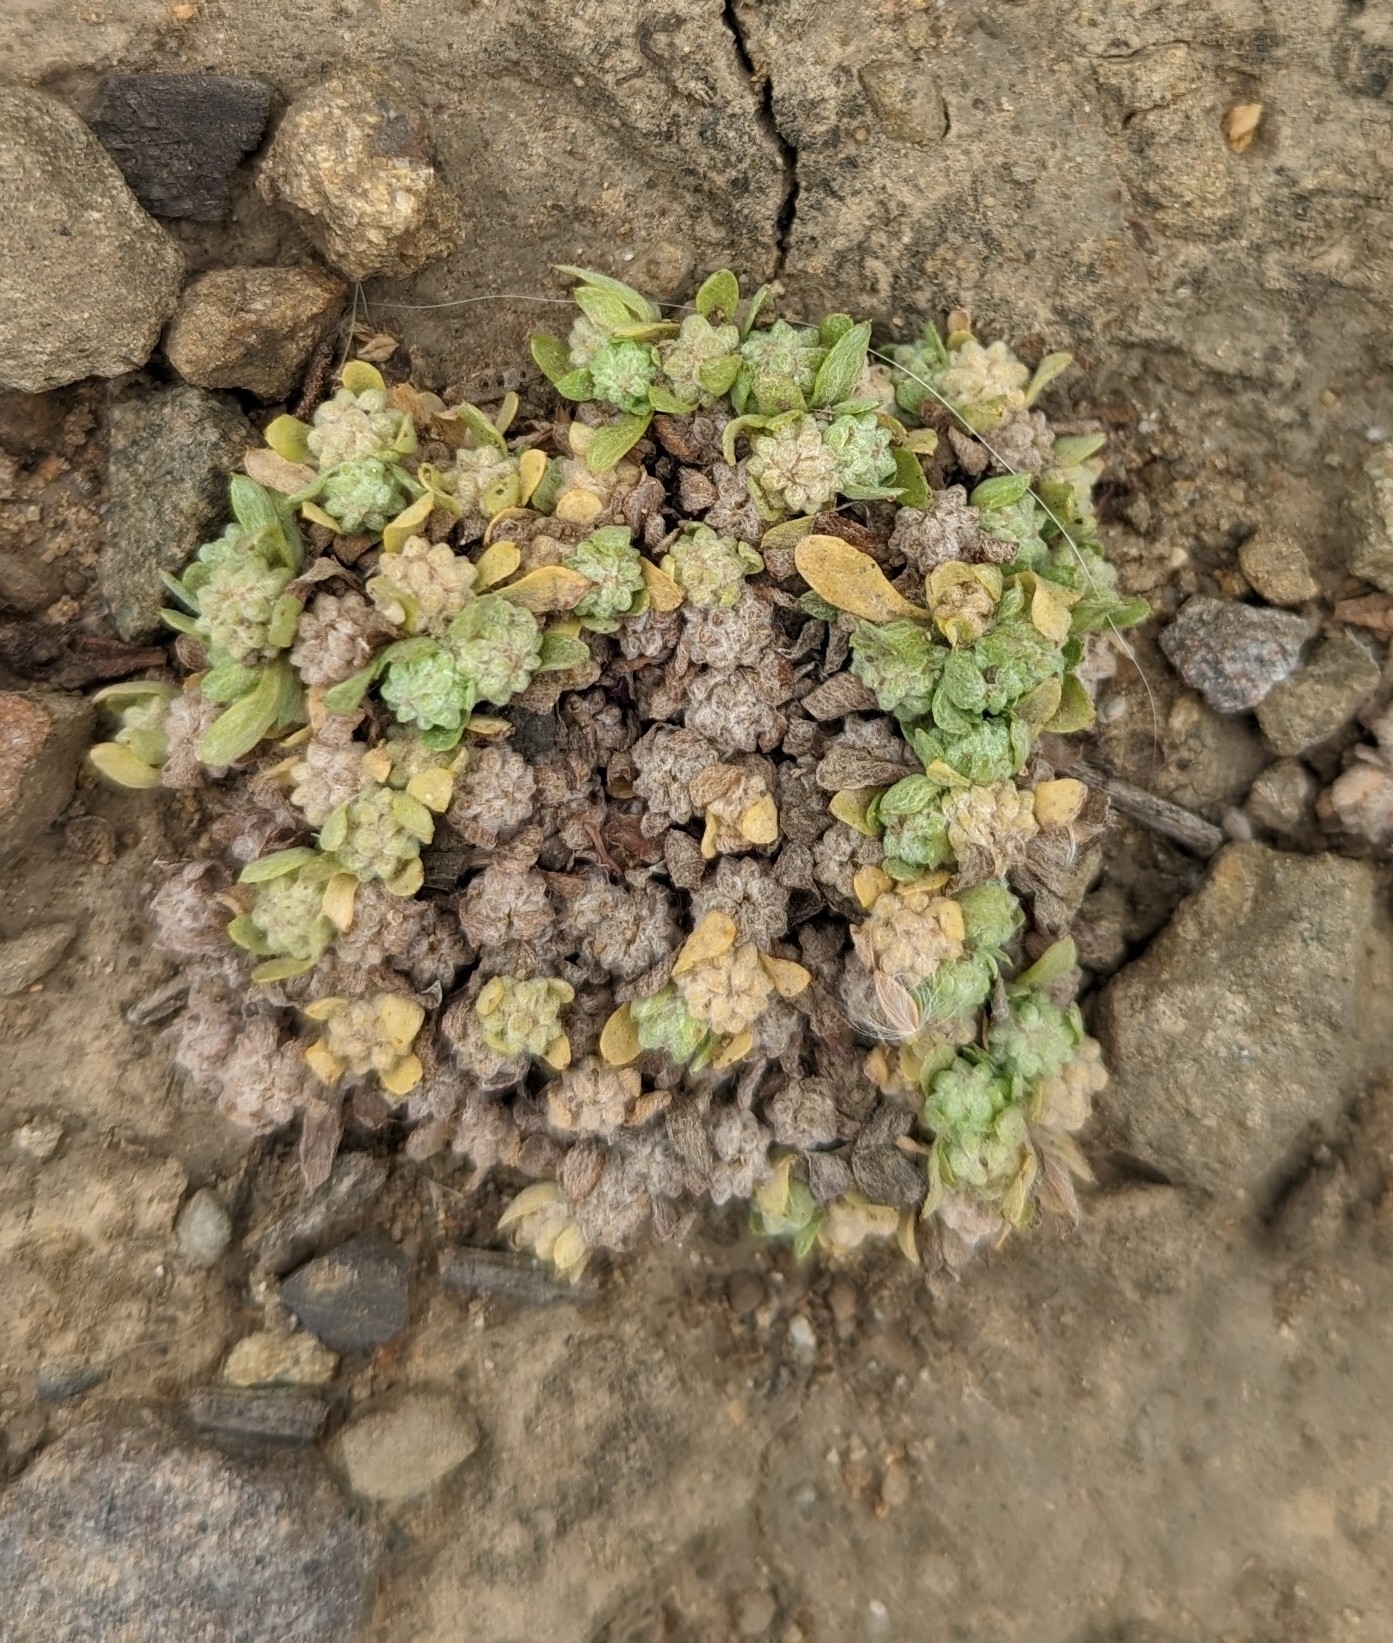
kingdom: Plantae
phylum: Tracheophyta
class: Magnoliopsida
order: Asterales
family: Asteraceae
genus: Psilocarphus
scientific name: Psilocarphus tenellus
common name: Slender woolly-marbles
